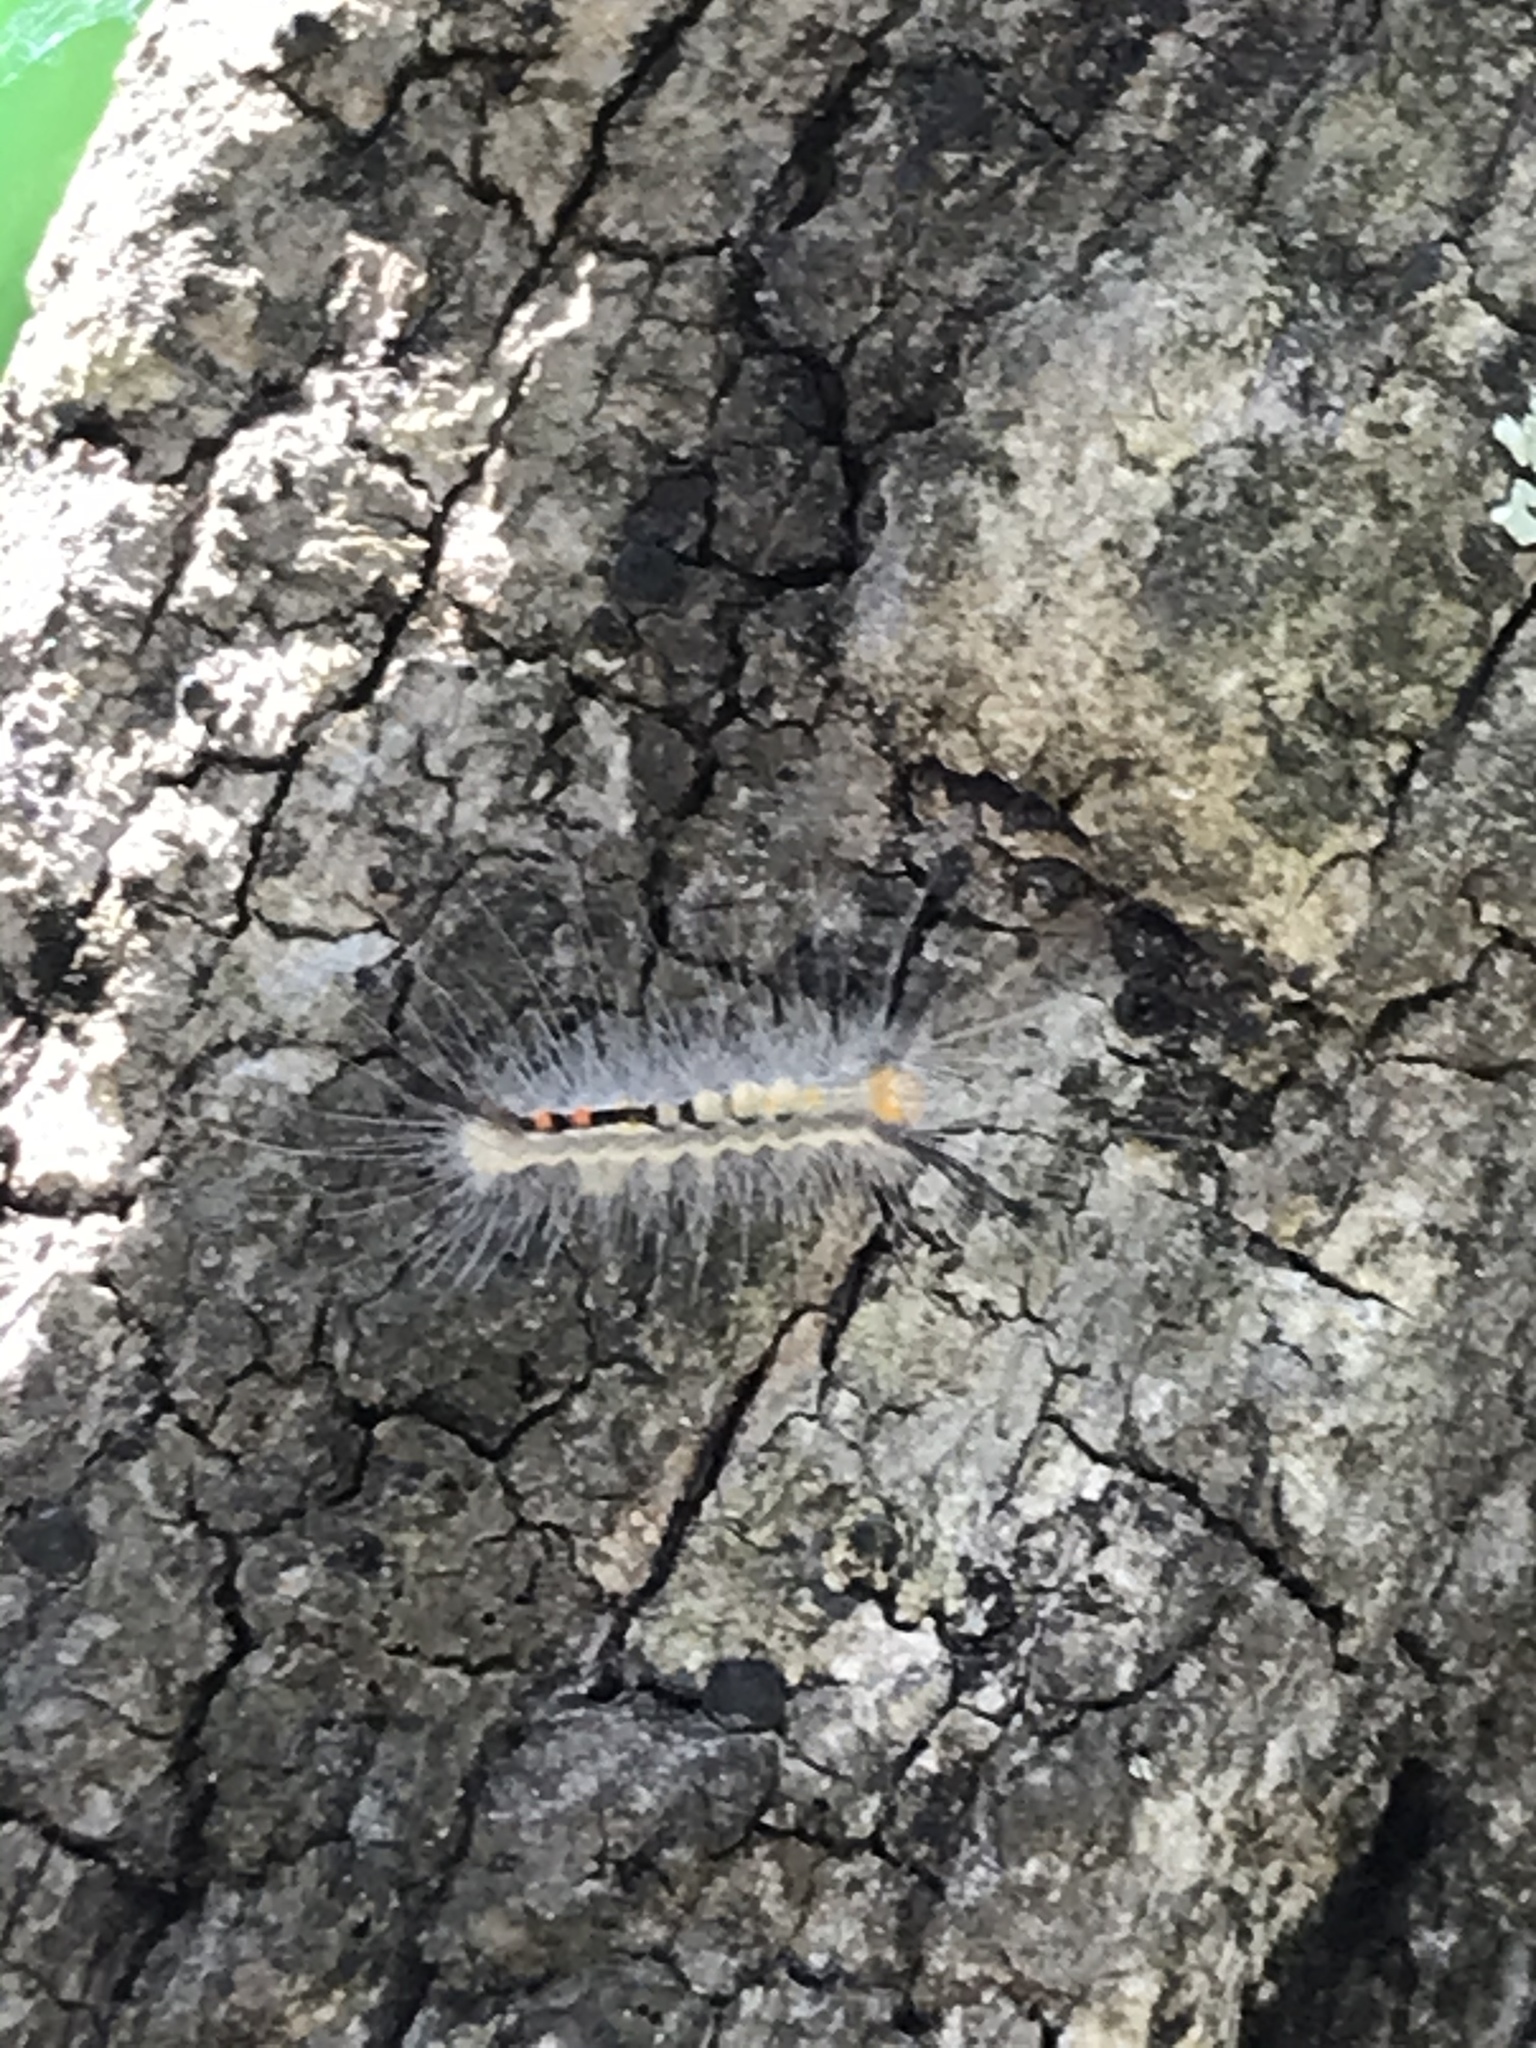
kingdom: Animalia
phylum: Arthropoda
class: Insecta
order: Lepidoptera
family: Erebidae
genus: Orgyia
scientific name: Orgyia leucostigma
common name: White-marked tussock moth
